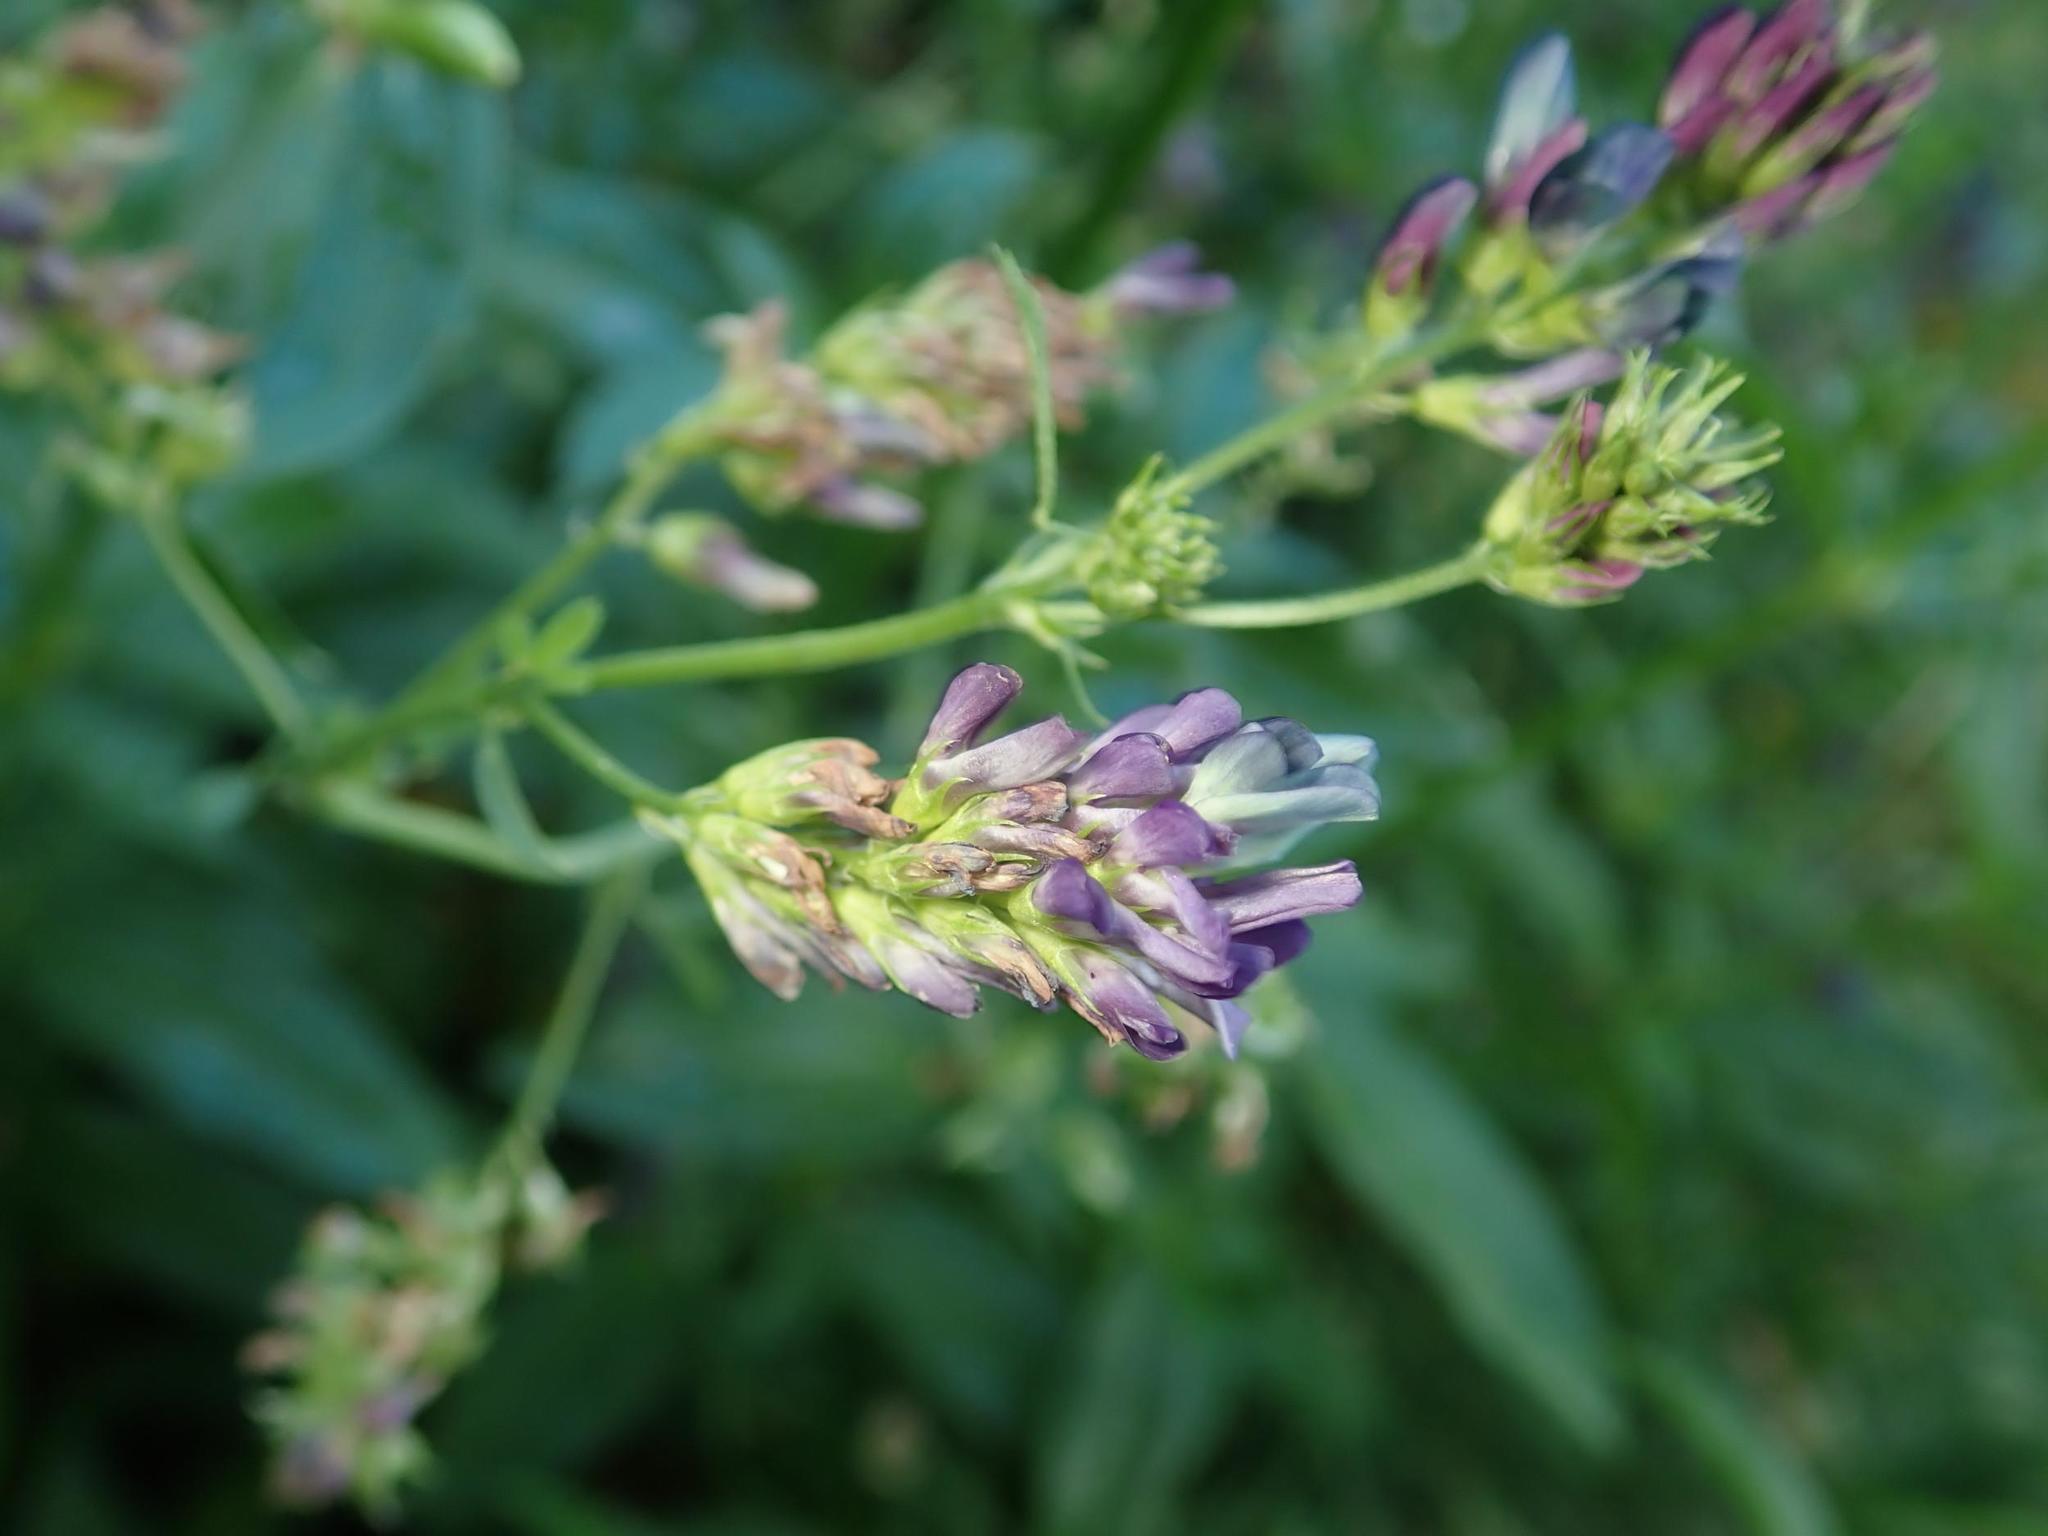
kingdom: Plantae
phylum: Tracheophyta
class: Magnoliopsida
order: Fabales
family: Fabaceae
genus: Medicago
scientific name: Medicago varia
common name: Sand lucerne
